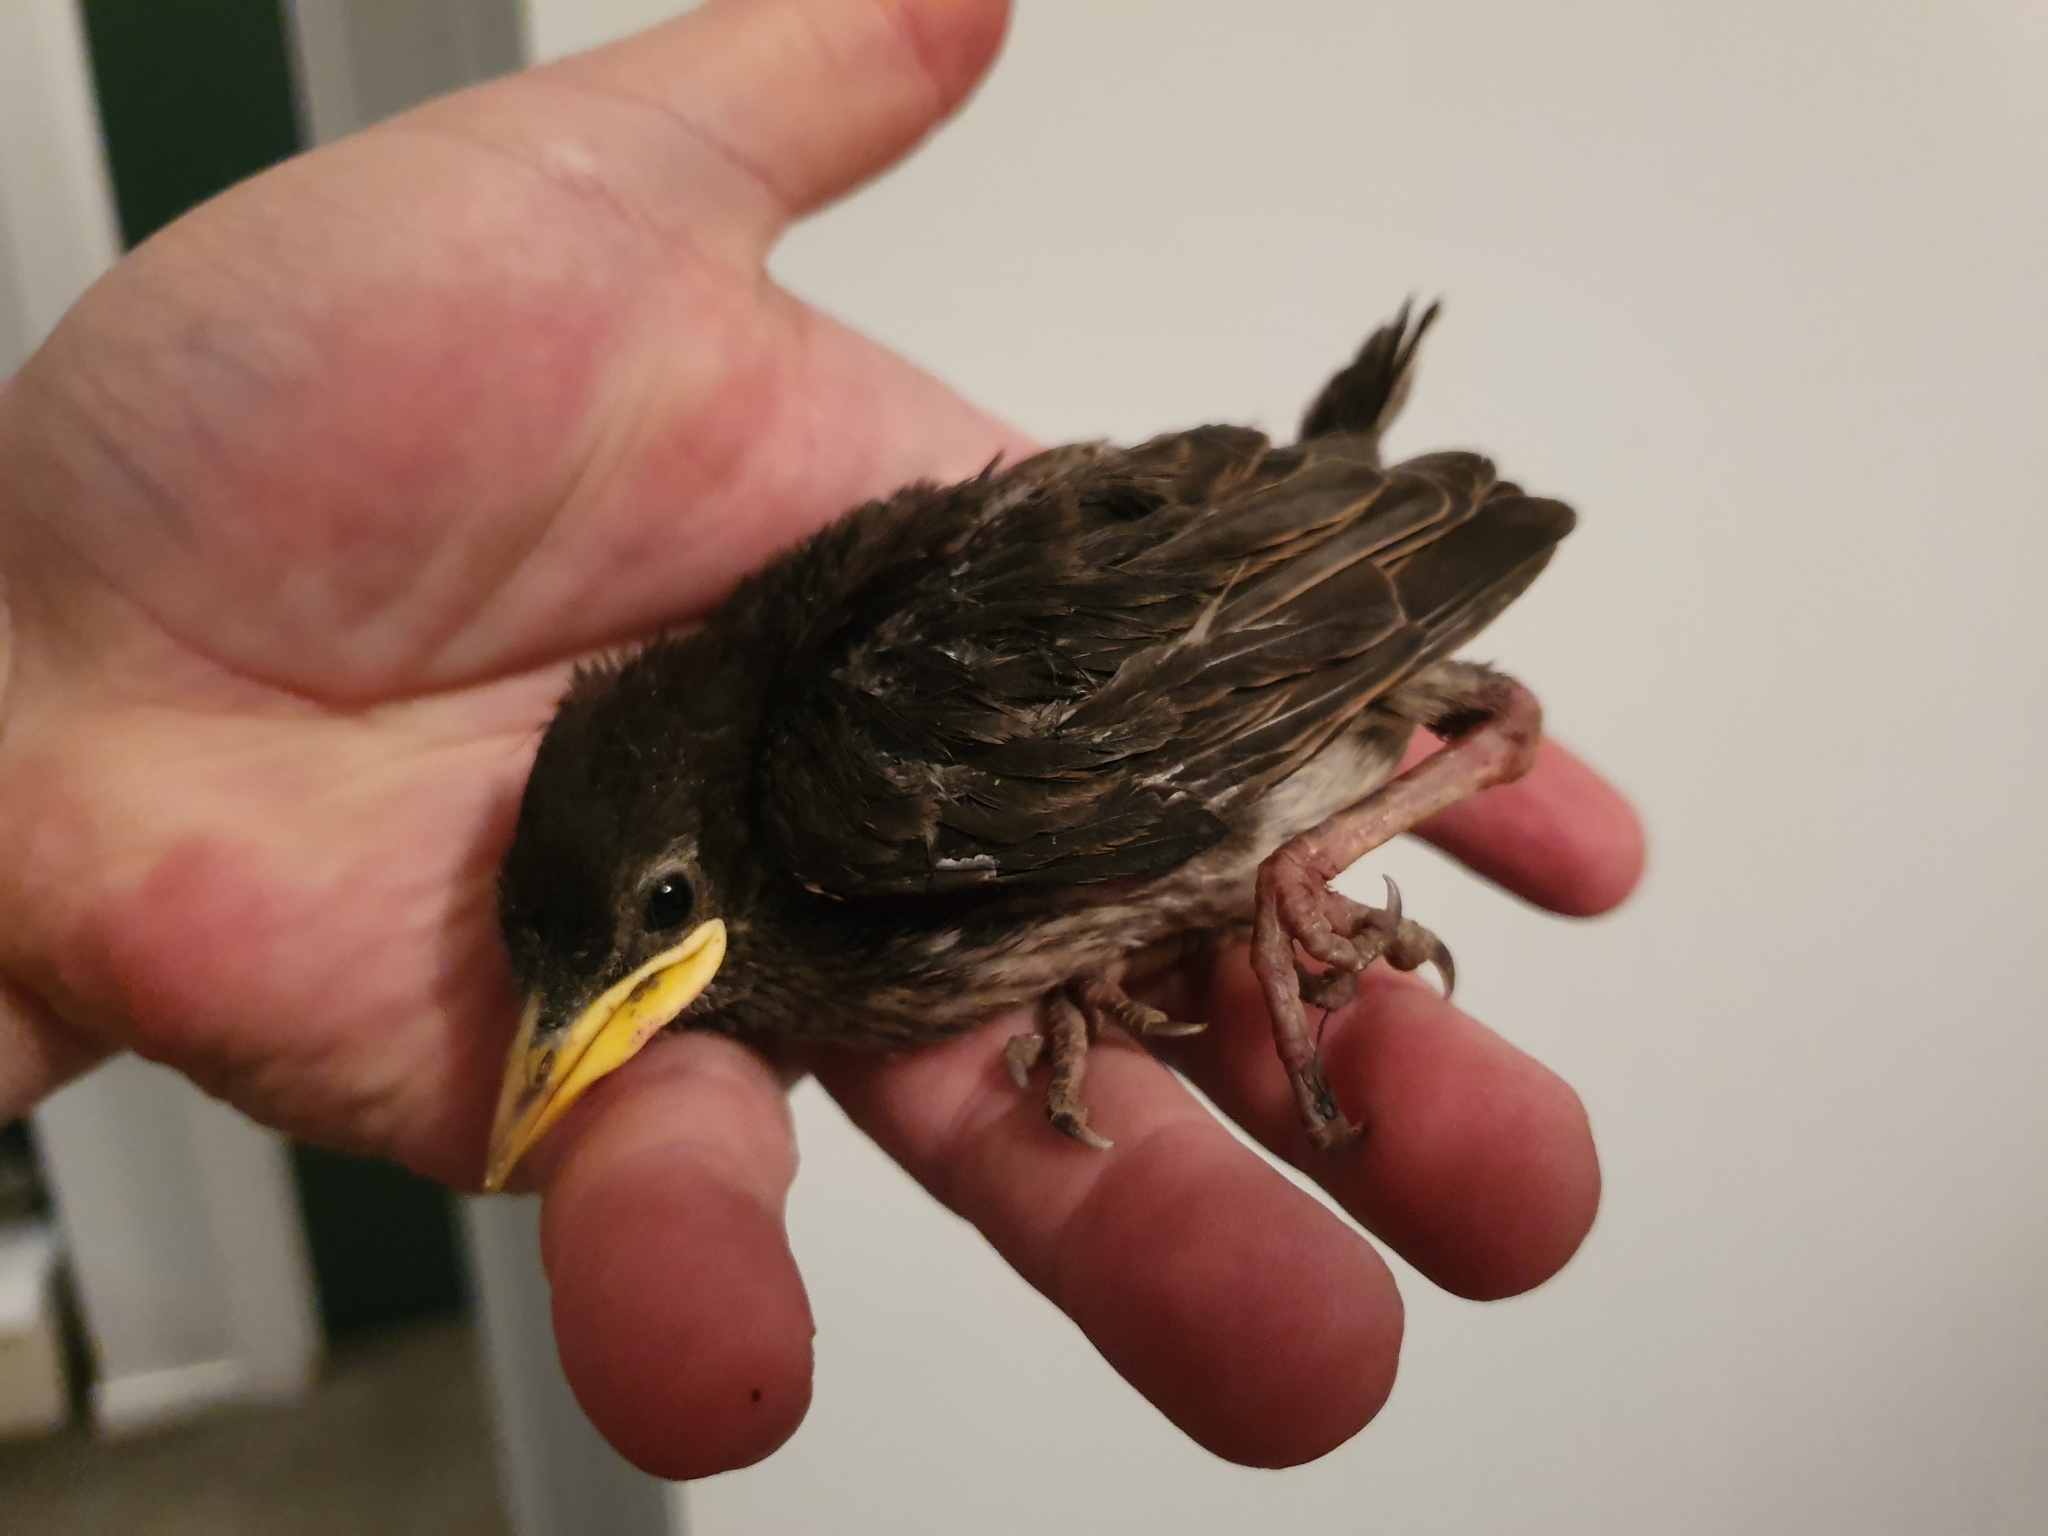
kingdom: Animalia
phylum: Chordata
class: Aves
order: Passeriformes
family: Sturnidae
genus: Sturnus
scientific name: Sturnus vulgaris
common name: Common starling
